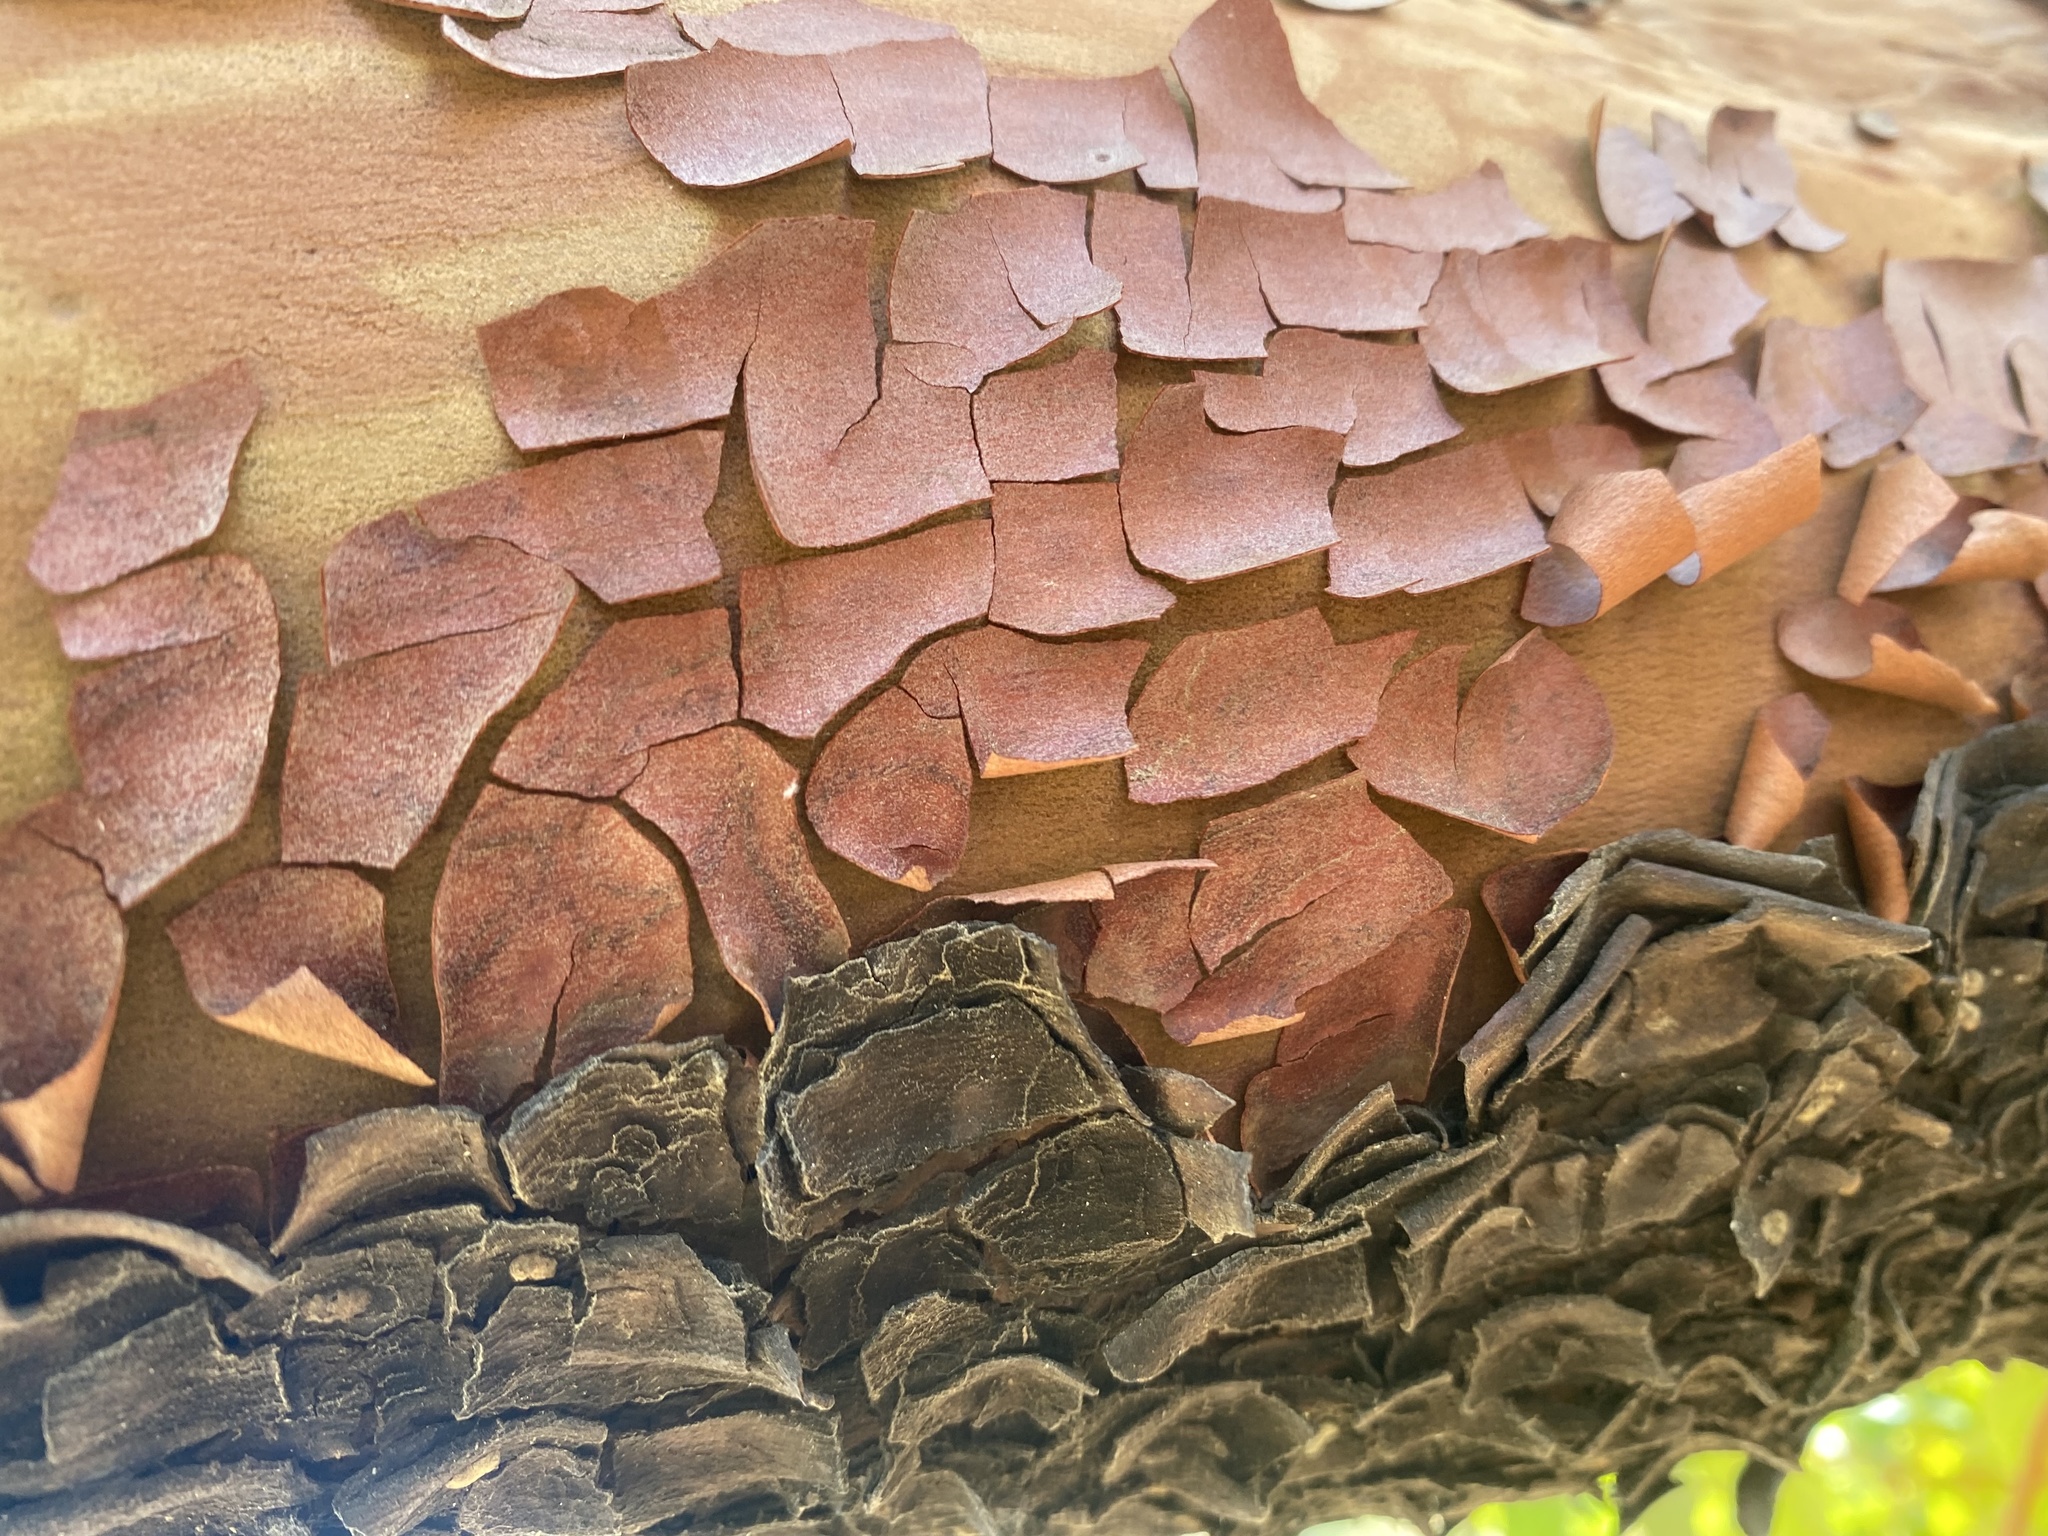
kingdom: Plantae
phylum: Tracheophyta
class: Magnoliopsida
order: Ericales
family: Ericaceae
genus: Arbutus
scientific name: Arbutus menziesii
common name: Pacific madrone
